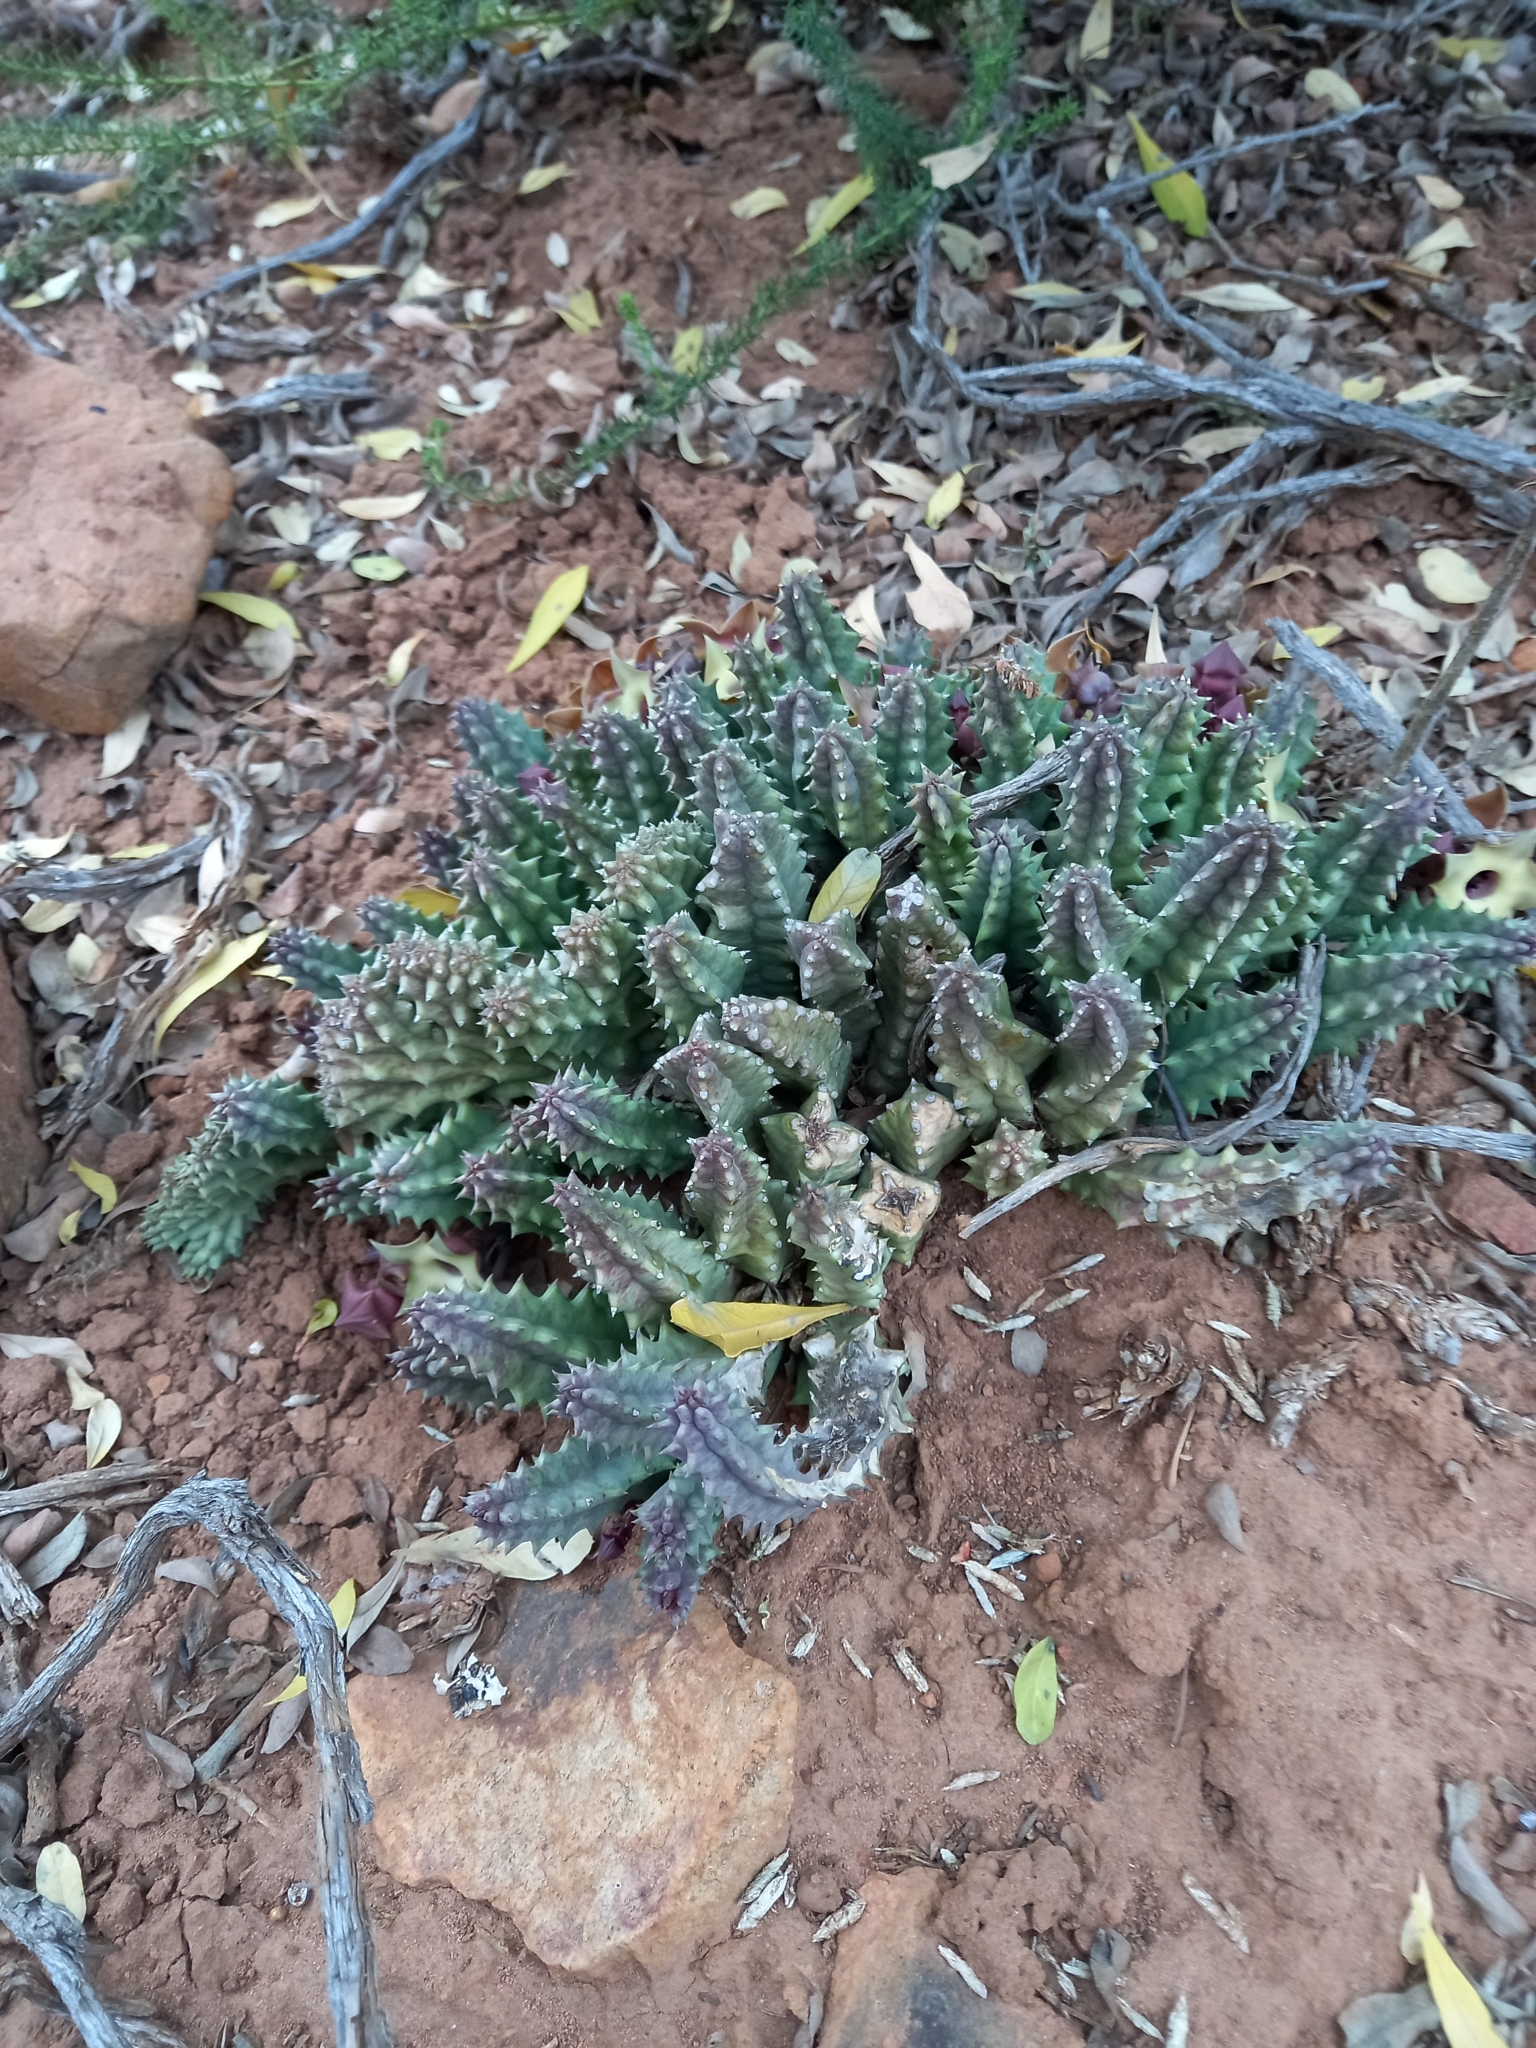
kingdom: Plantae
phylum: Tracheophyta
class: Magnoliopsida
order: Gentianales
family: Apocynaceae
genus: Ceropegia
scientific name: Ceropegia thuretii
